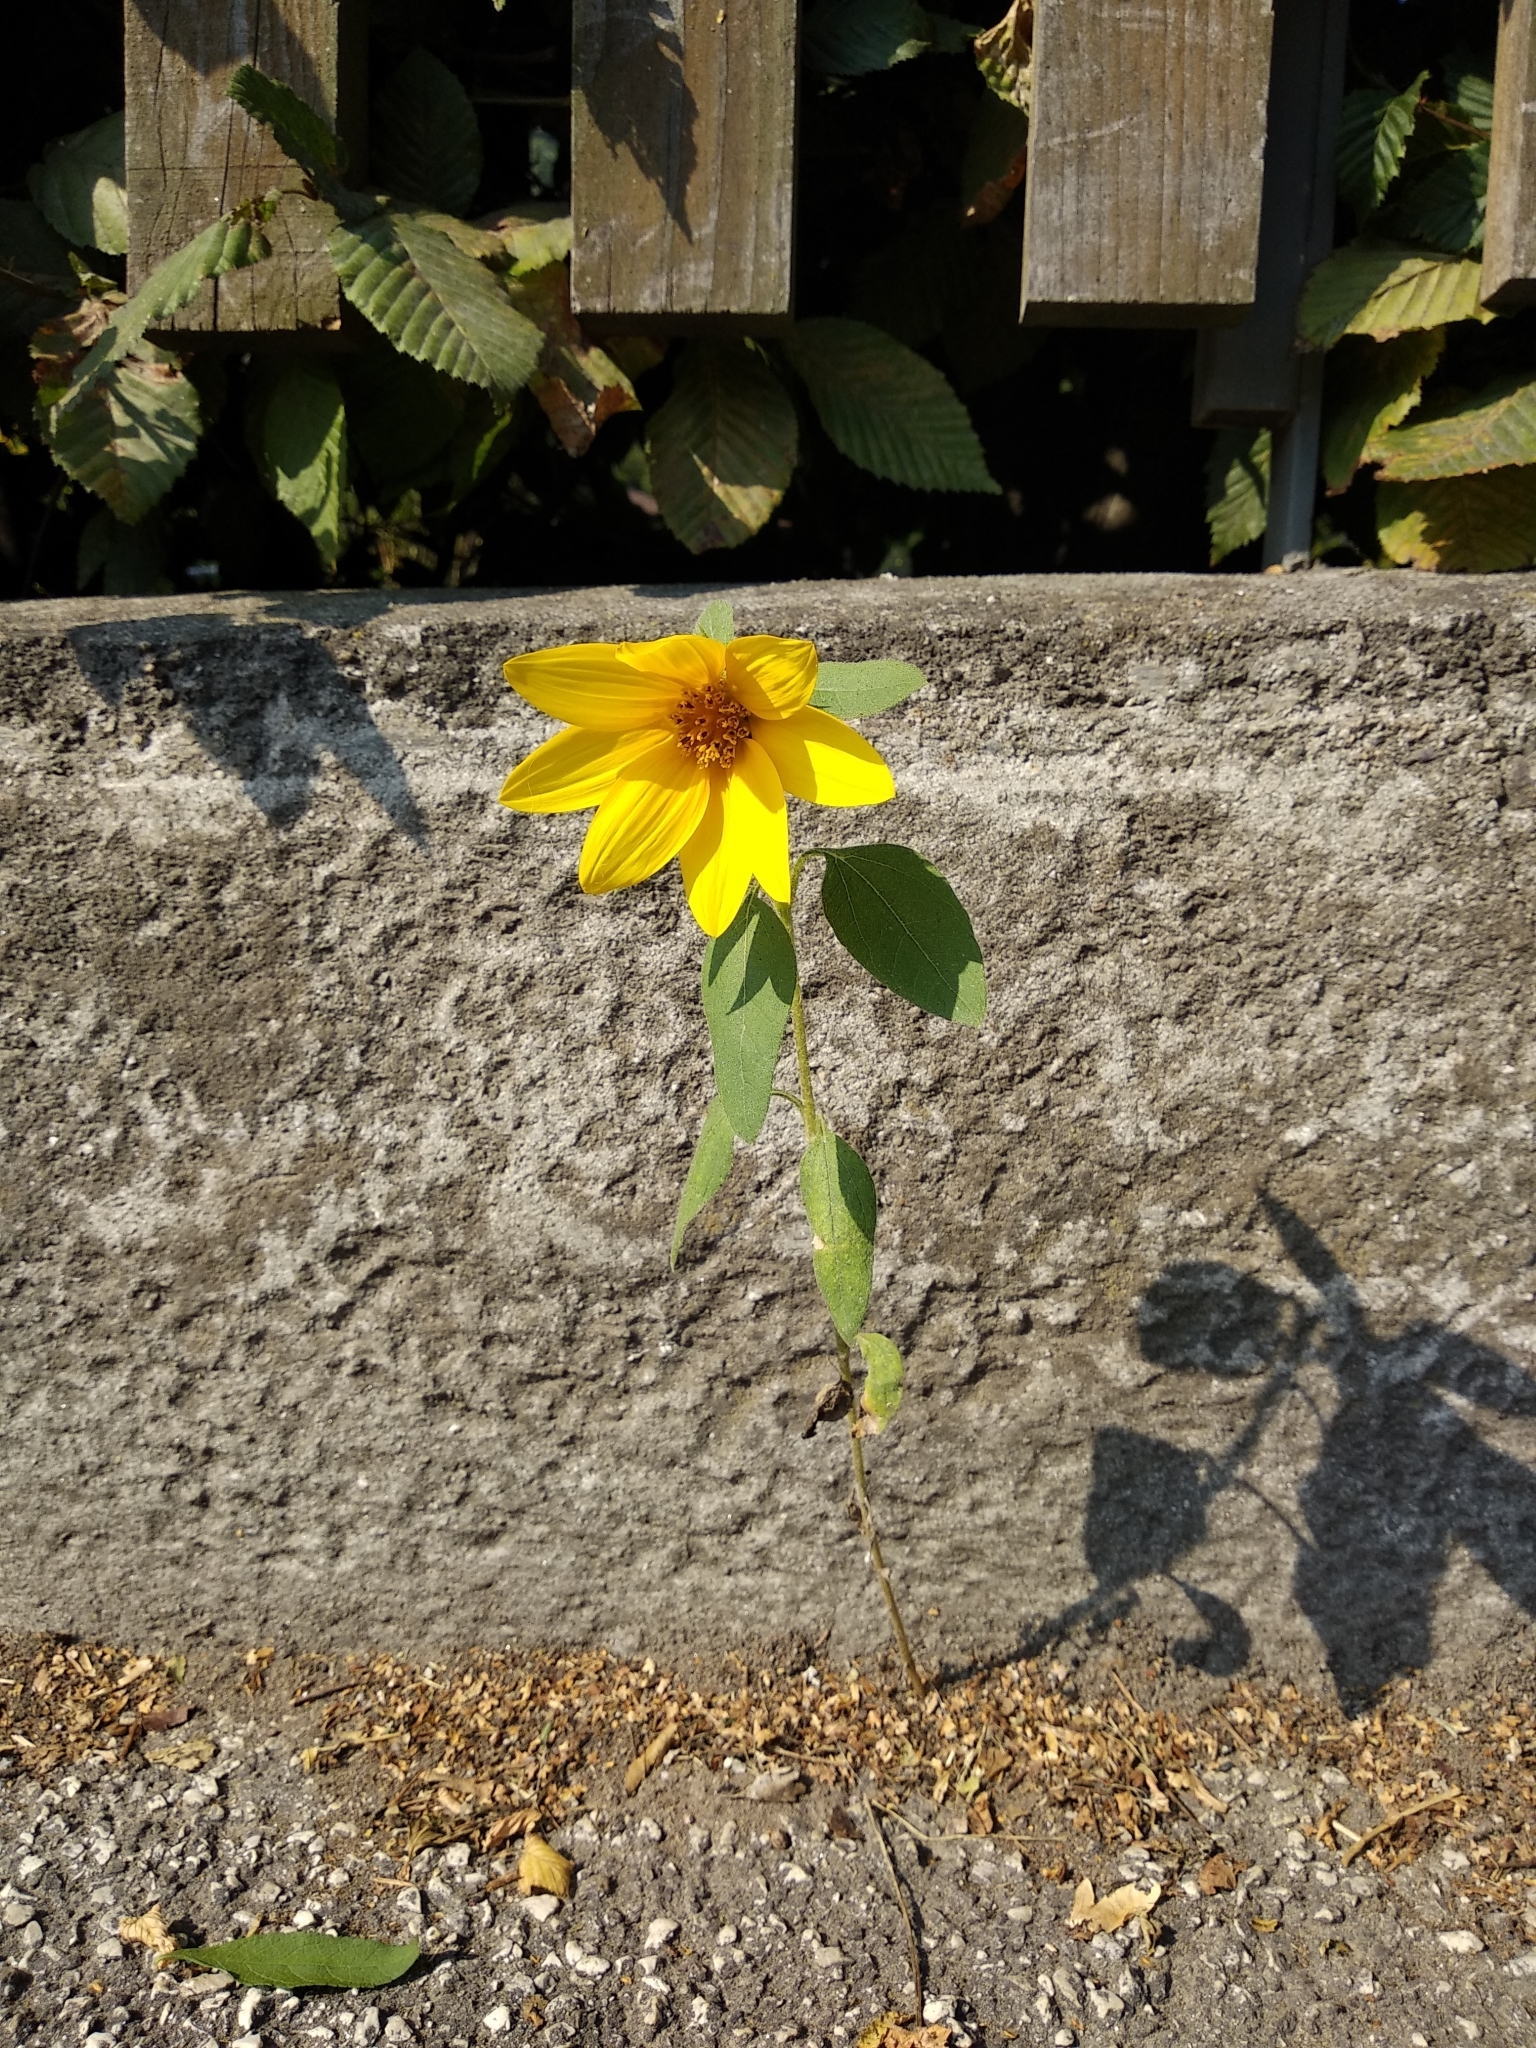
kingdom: Plantae
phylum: Tracheophyta
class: Magnoliopsida
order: Asterales
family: Asteraceae
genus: Helianthus
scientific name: Helianthus tuberosus
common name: Jerusalem artichoke
